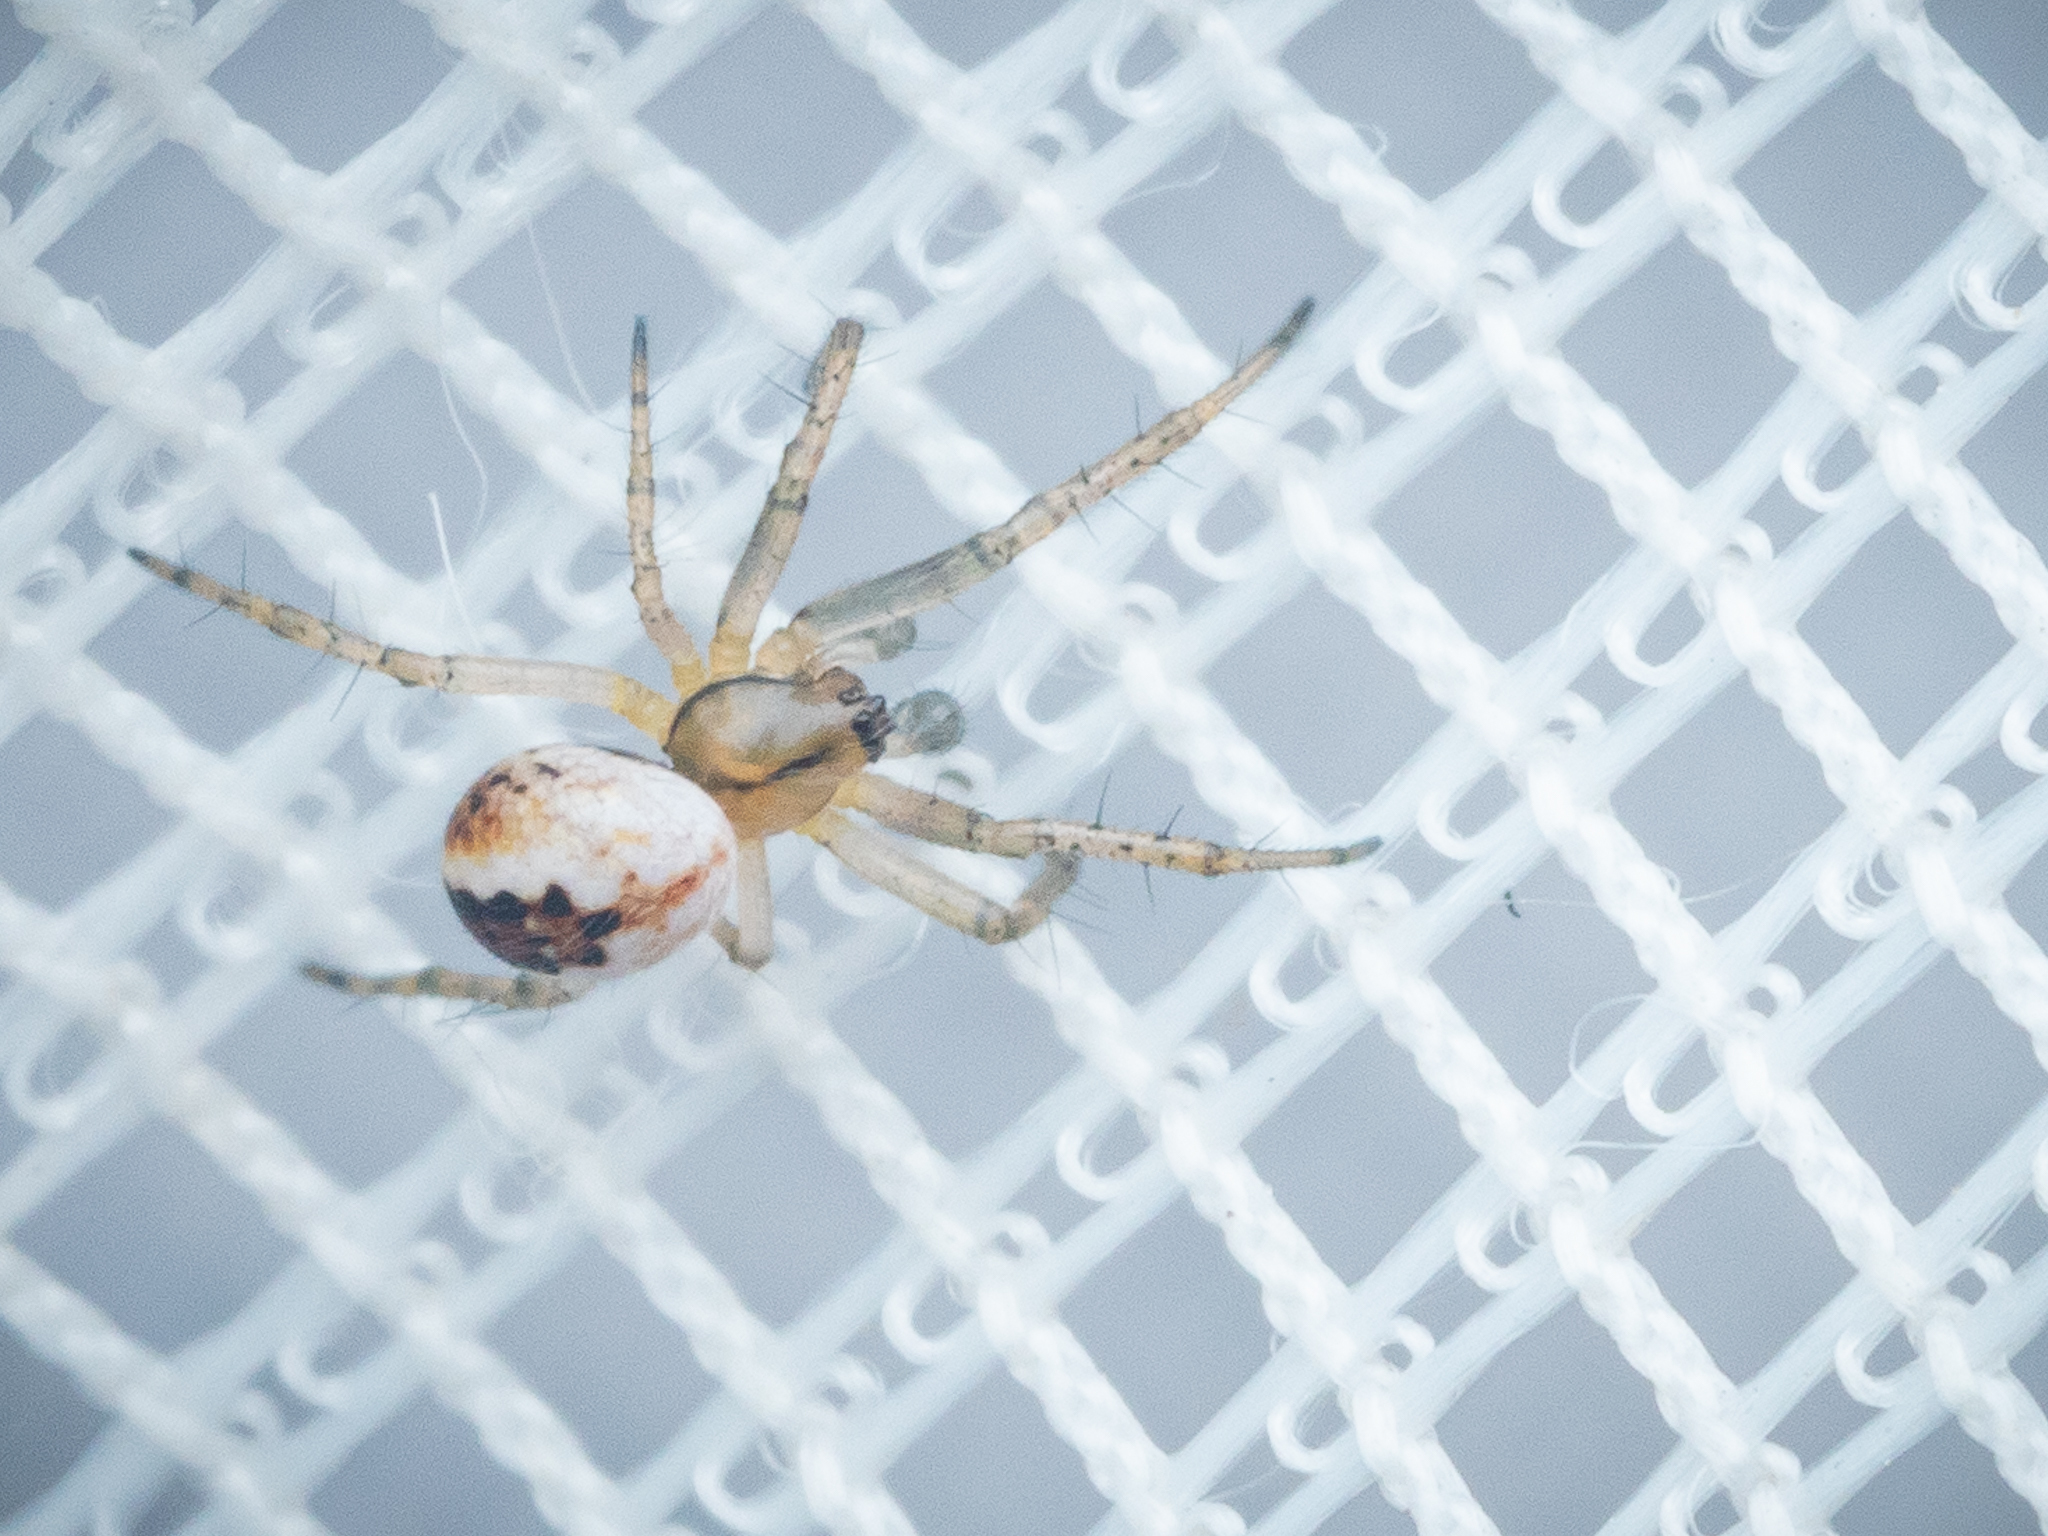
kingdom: Animalia
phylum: Arthropoda
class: Arachnida
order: Araneae
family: Araneidae
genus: Mangora
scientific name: Mangora acalypha
